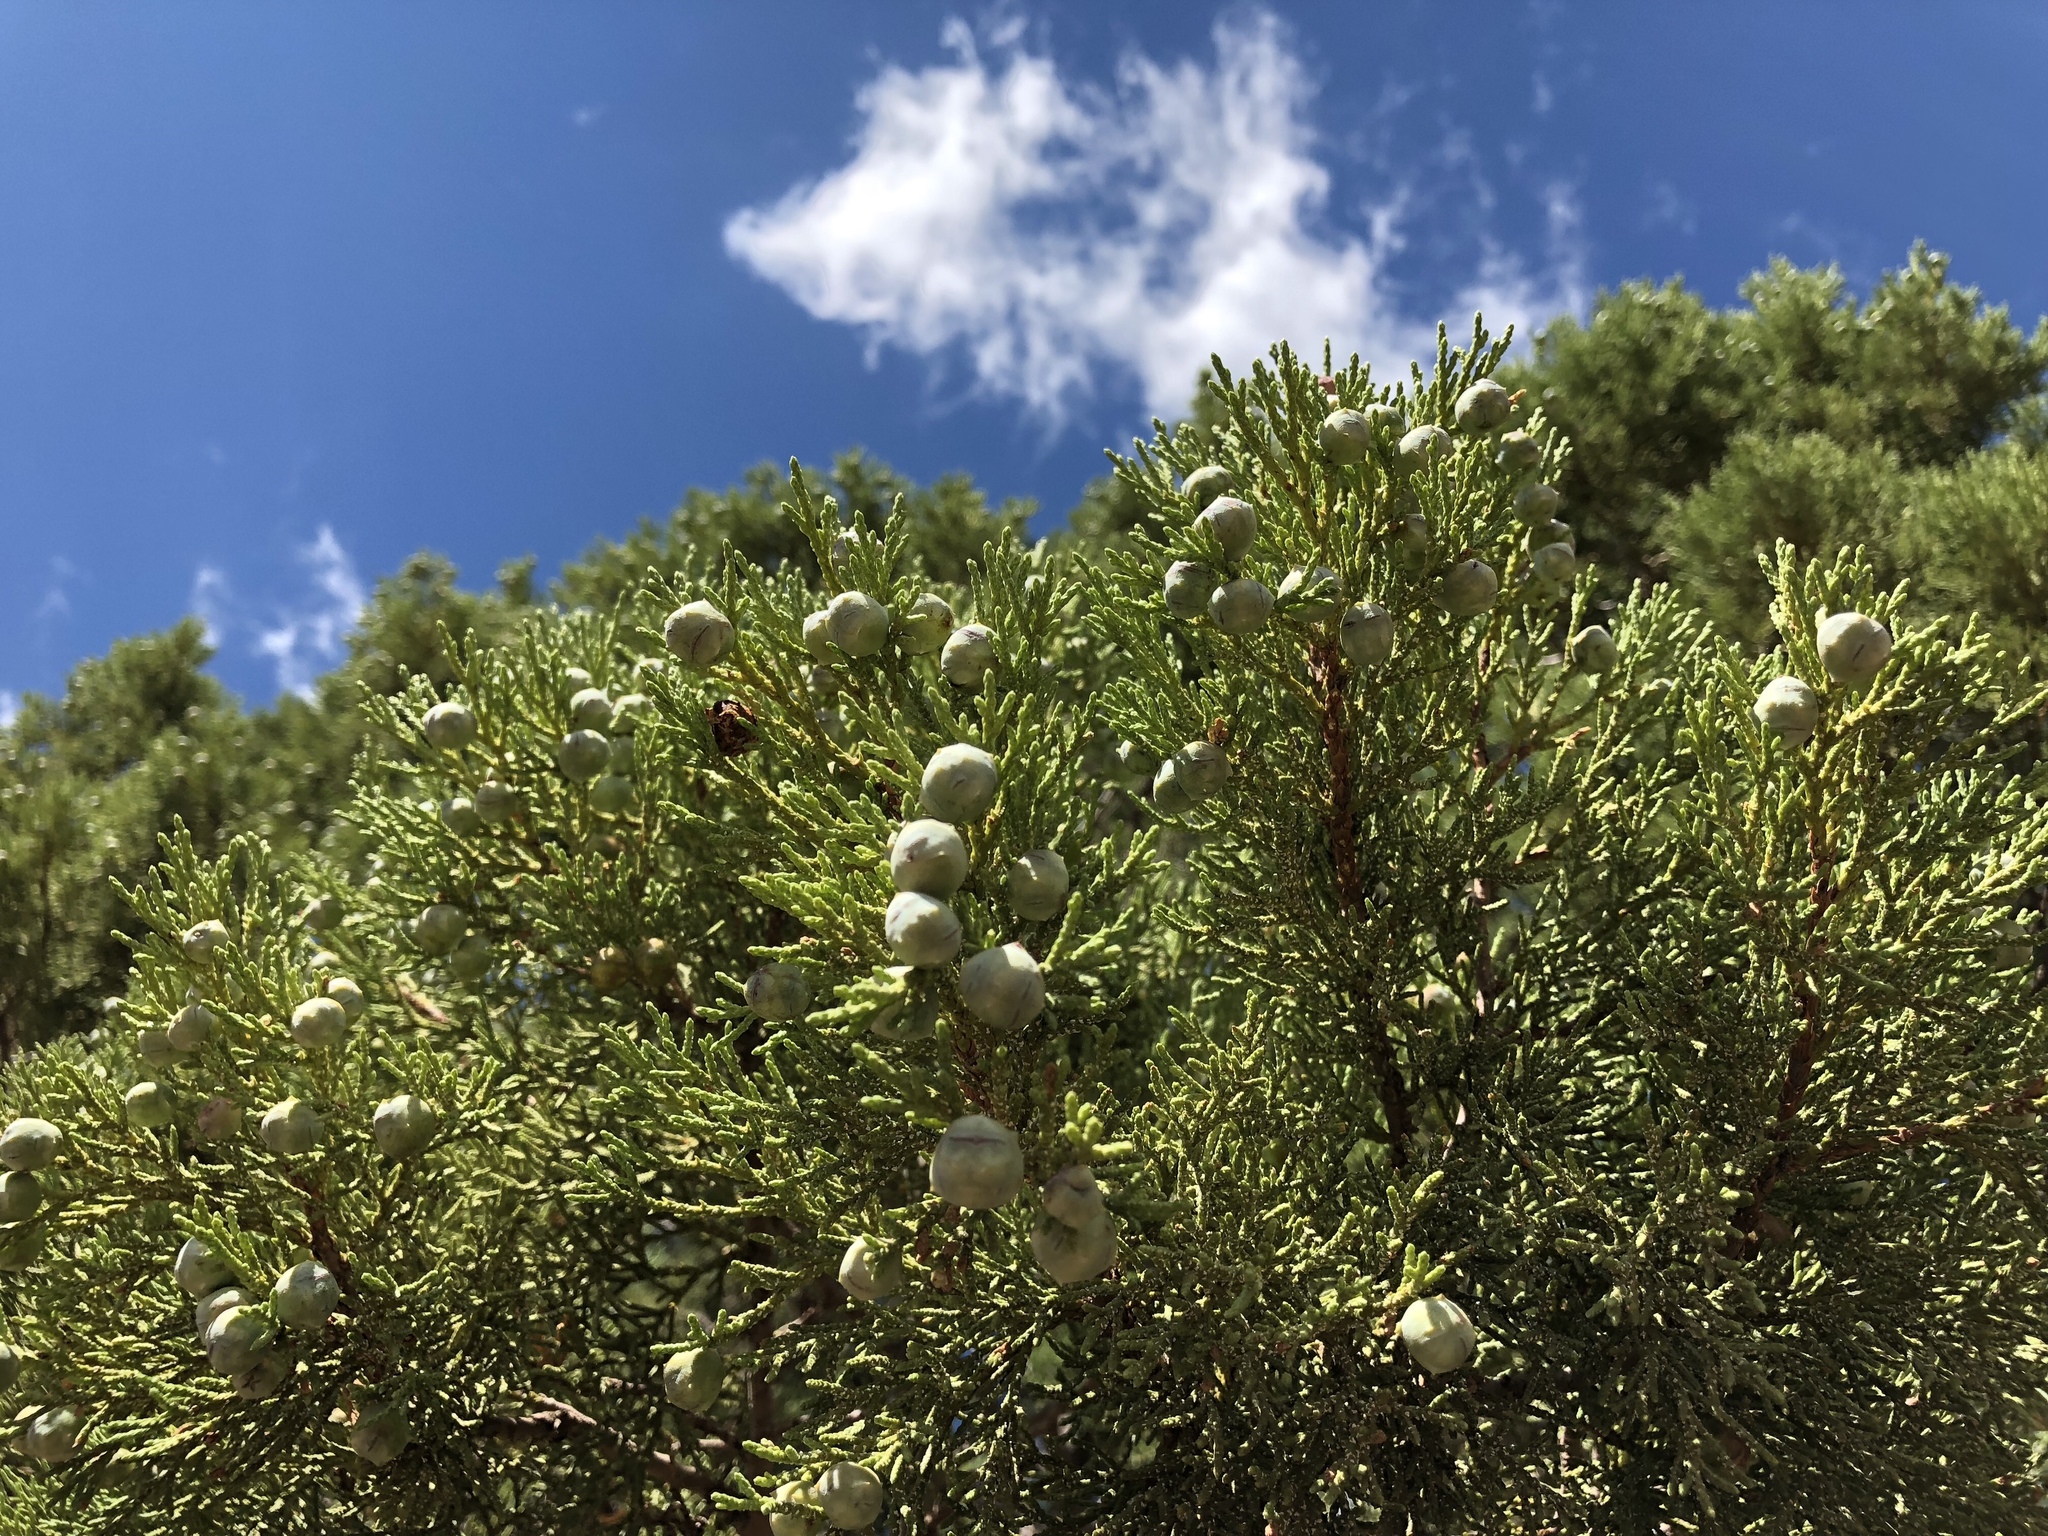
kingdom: Plantae
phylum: Tracheophyta
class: Pinopsida
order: Pinales
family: Cupressaceae
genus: Juniperus
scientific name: Juniperus deppeana
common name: Alligator juniper
